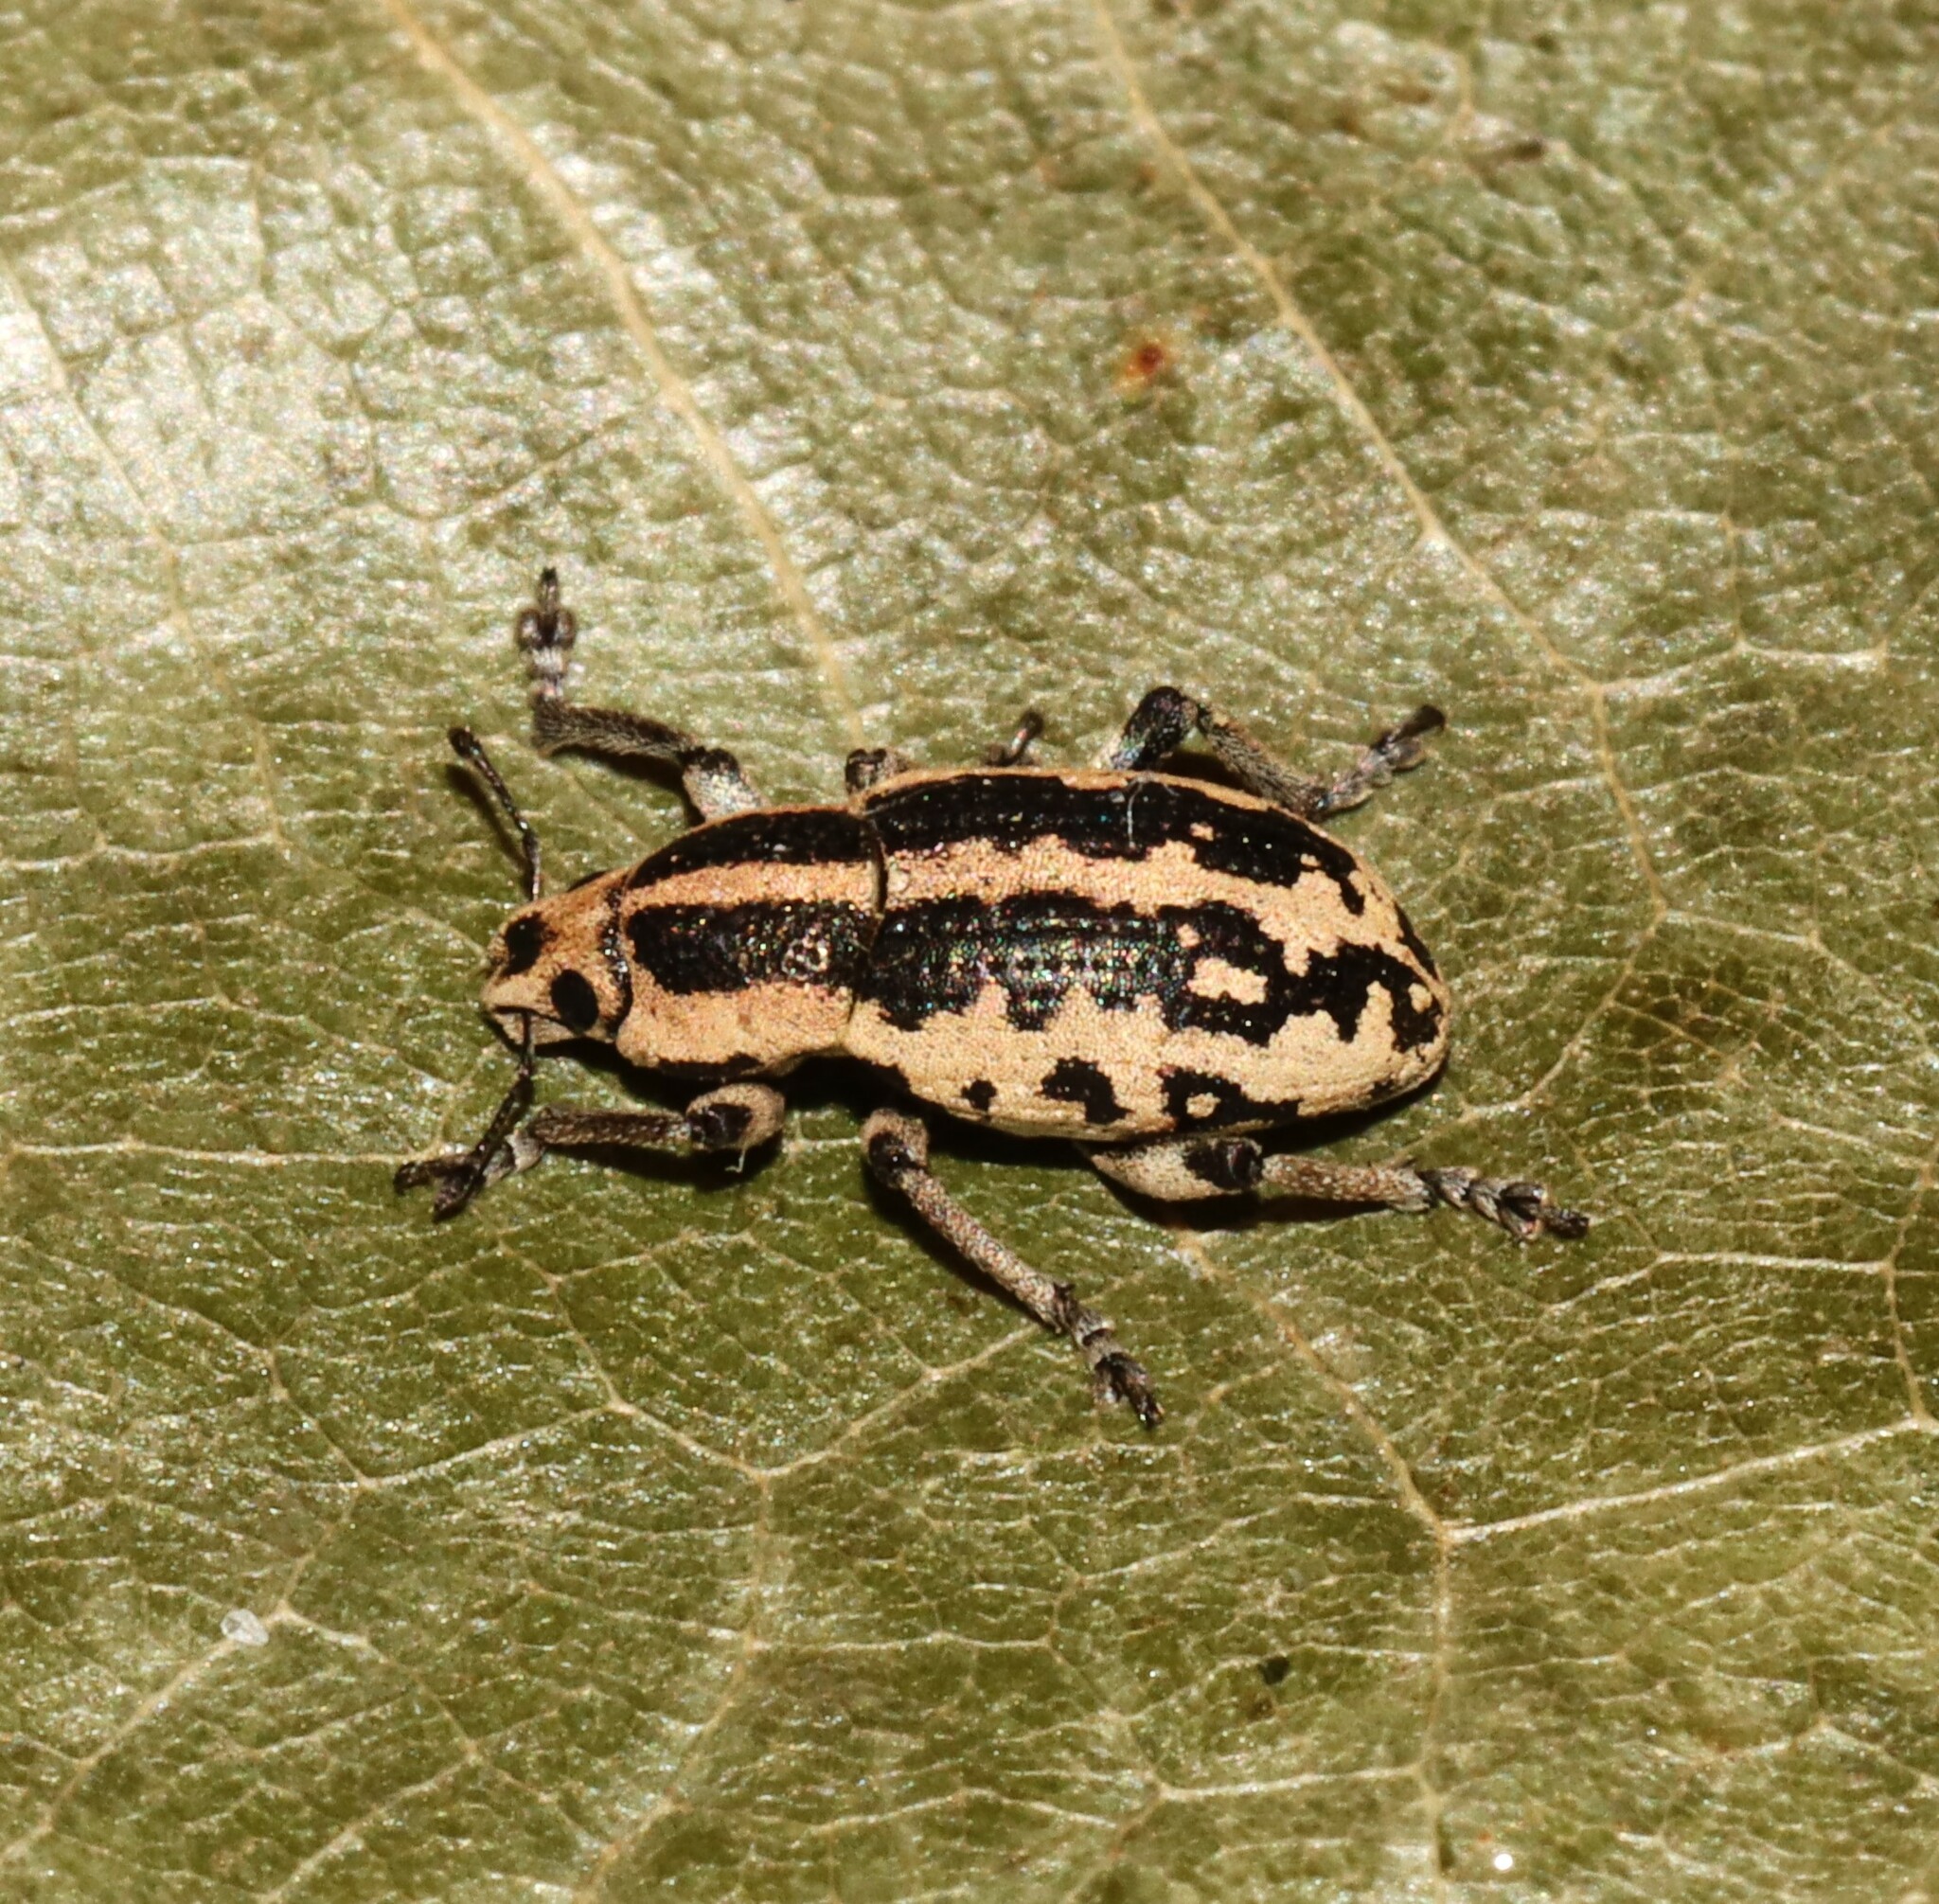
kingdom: Animalia
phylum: Arthropoda
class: Insecta
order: Coleoptera
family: Curculionidae
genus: Eudiagogus
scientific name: Eudiagogus rosenschoeldi
